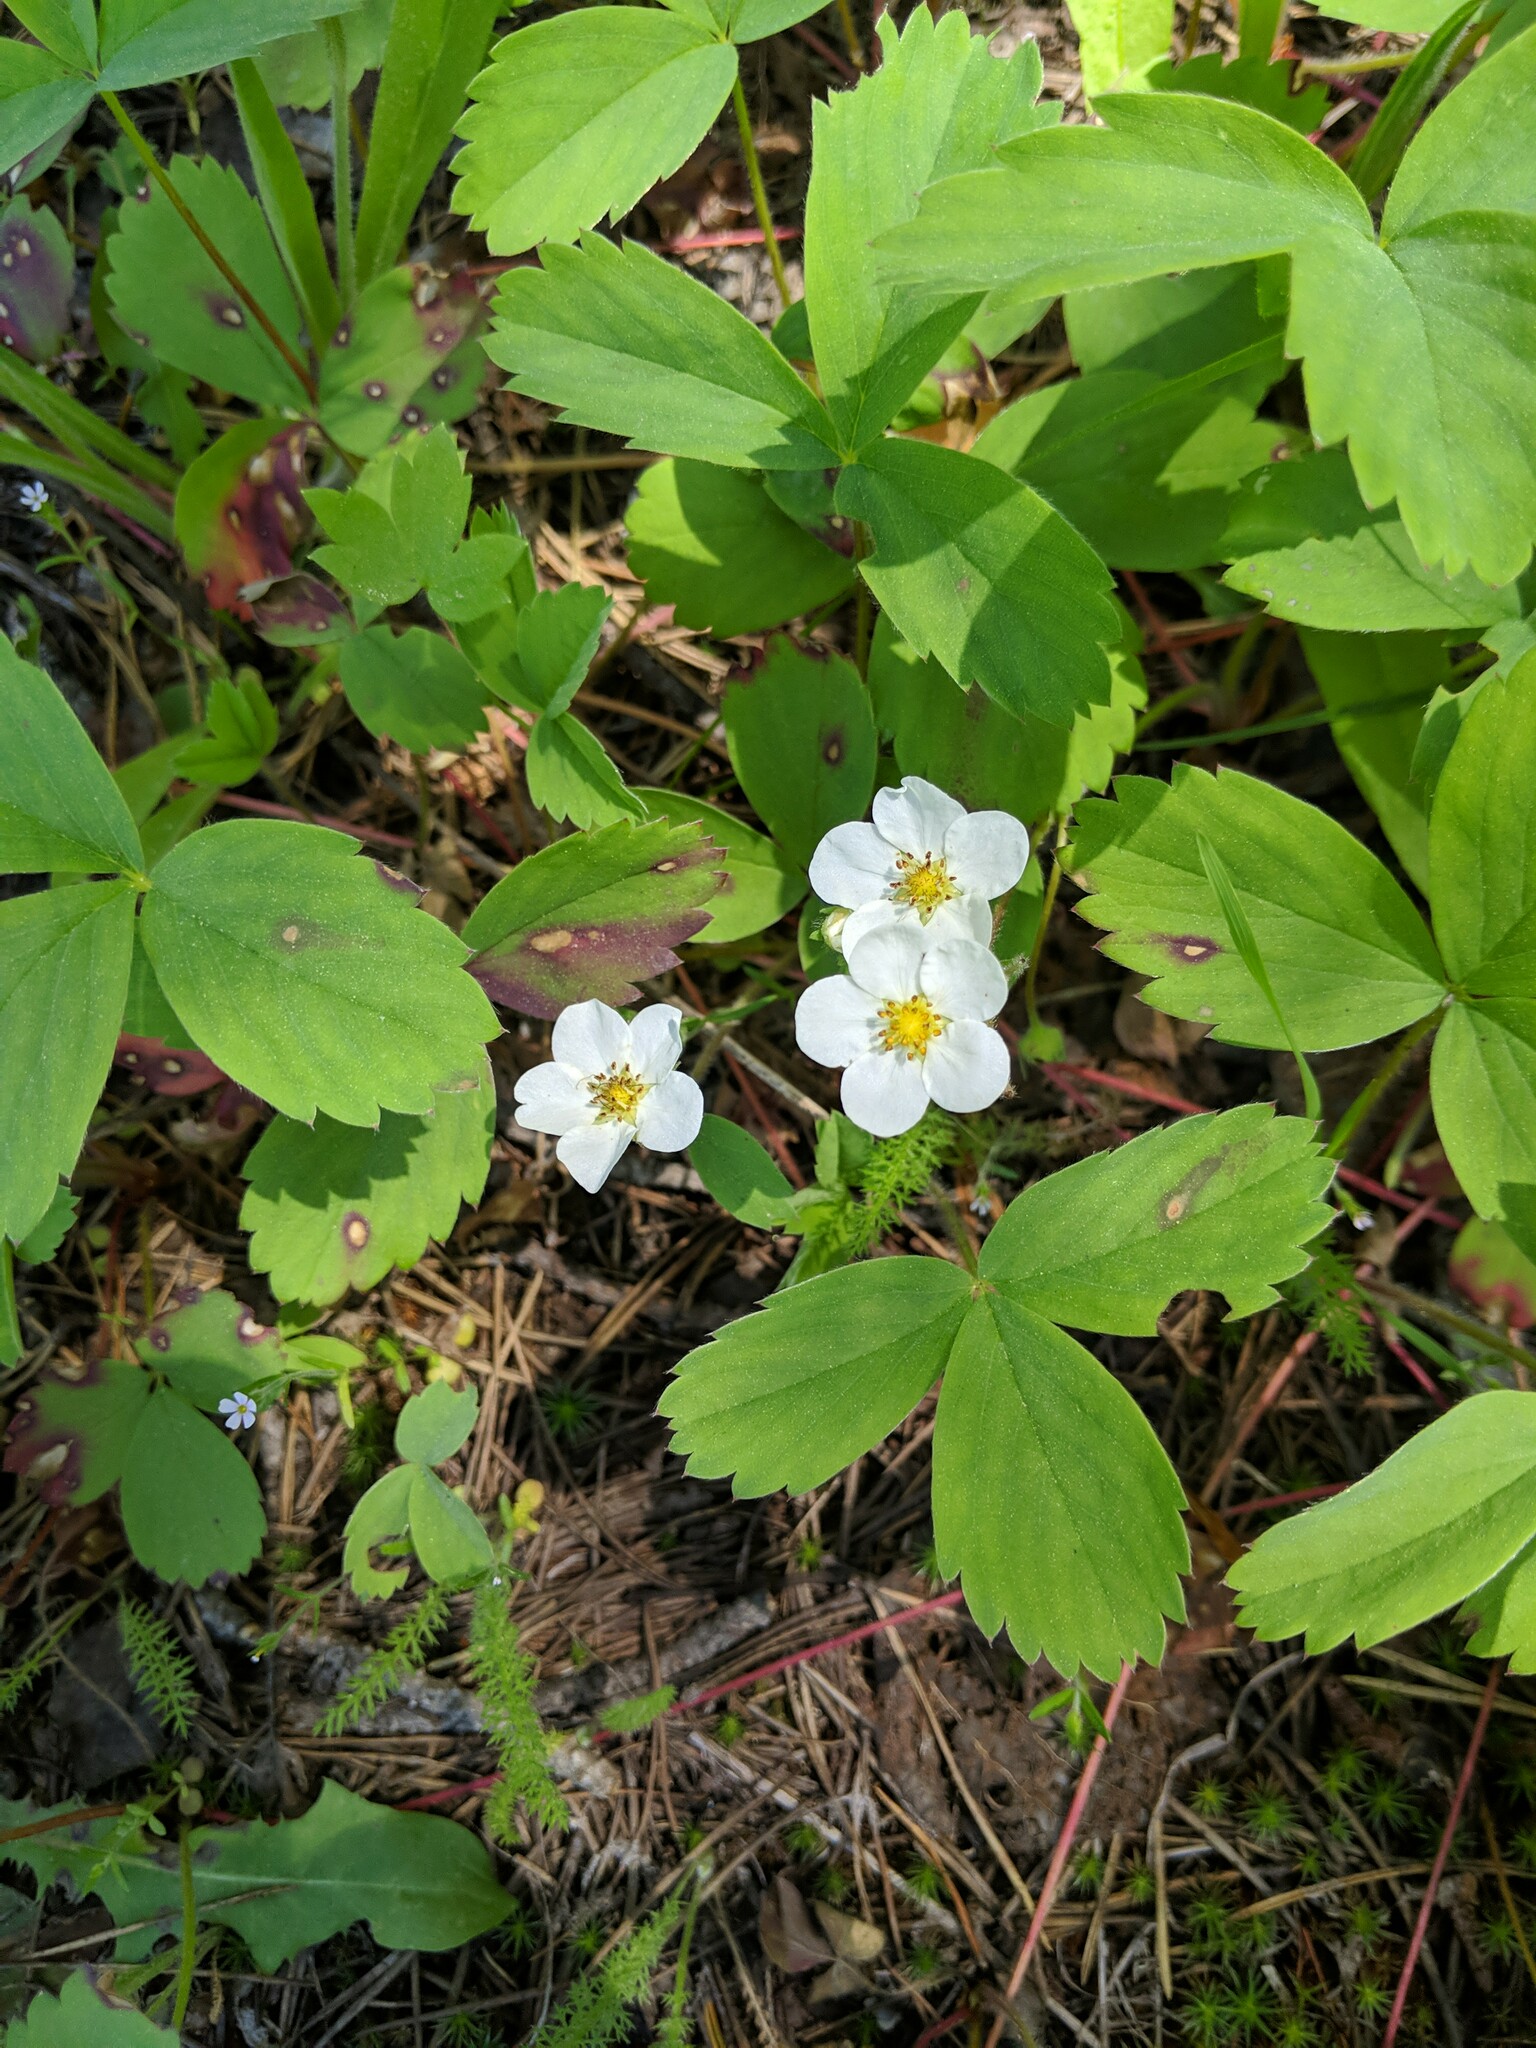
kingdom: Plantae
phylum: Tracheophyta
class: Magnoliopsida
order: Rosales
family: Rosaceae
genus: Fragaria
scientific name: Fragaria virginiana
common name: Thickleaved wild strawberry
